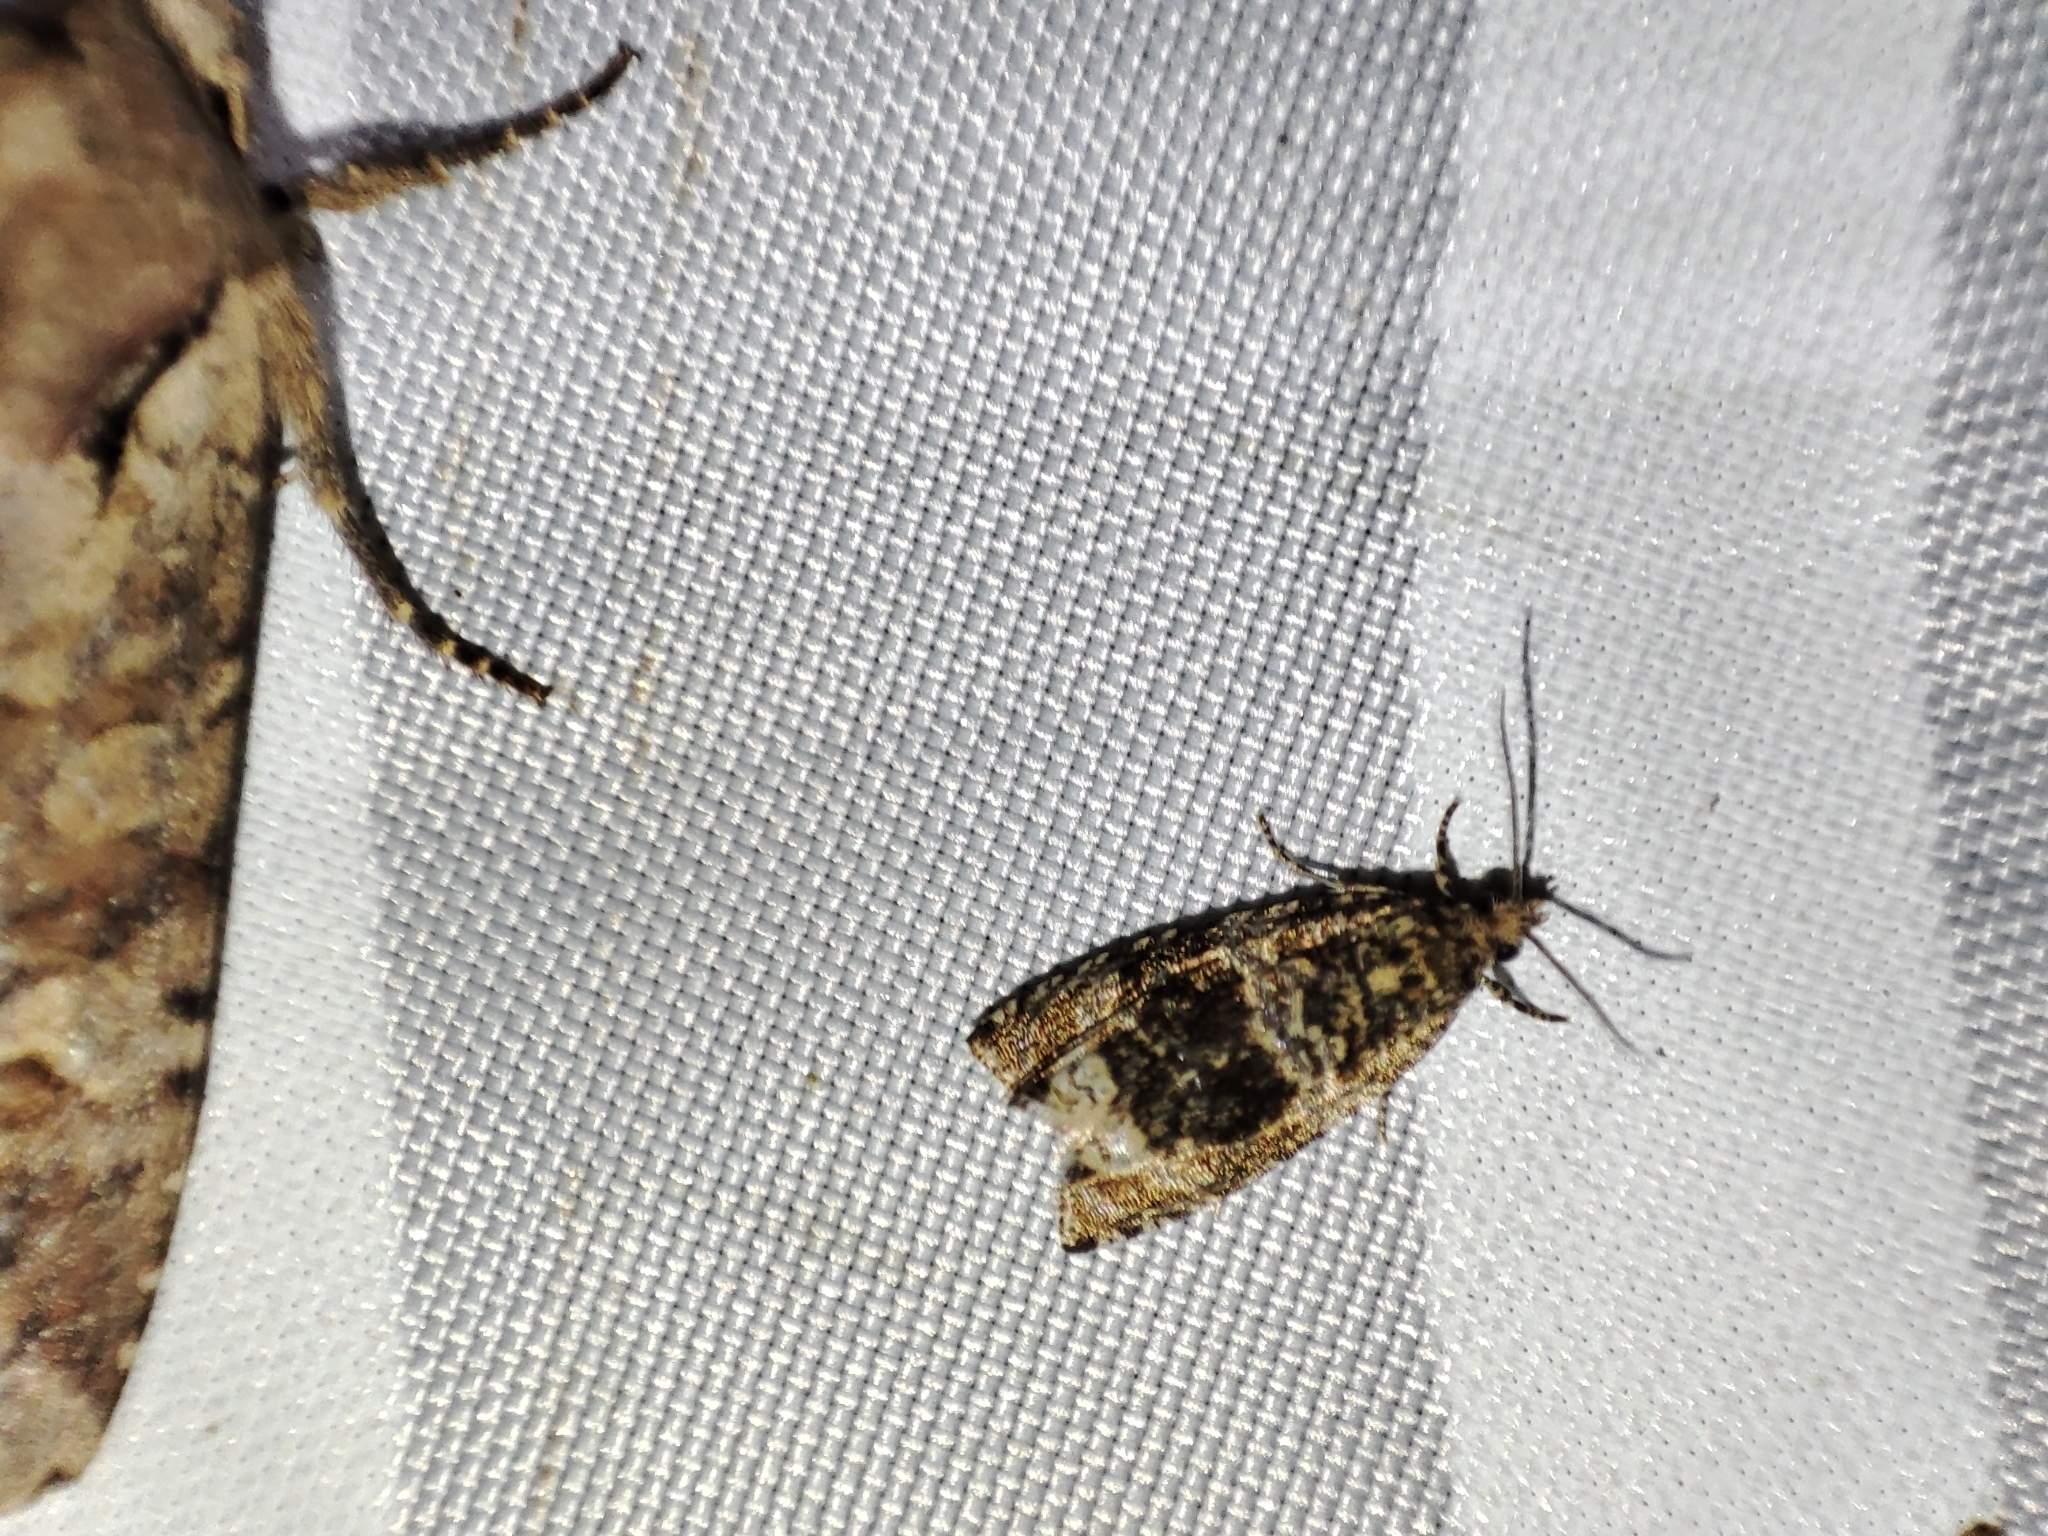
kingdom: Animalia
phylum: Arthropoda
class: Insecta
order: Lepidoptera
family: Tortricidae
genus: Syricoris
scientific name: Syricoris lacunana
